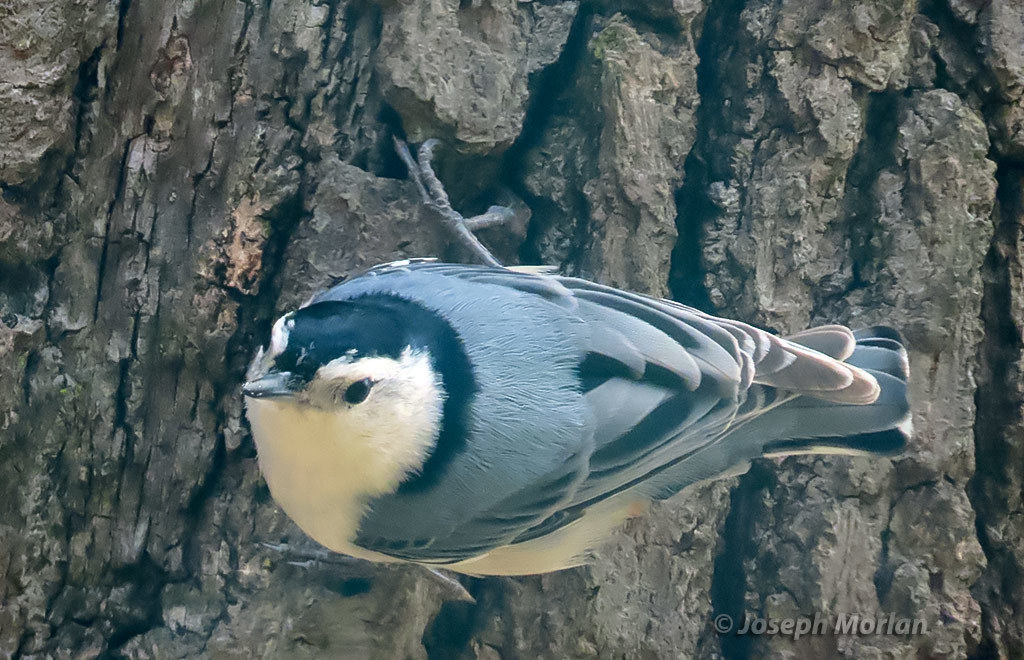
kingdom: Animalia
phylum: Chordata
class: Aves
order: Passeriformes
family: Sittidae
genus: Sitta
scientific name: Sitta carolinensis
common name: White-breasted nuthatch
